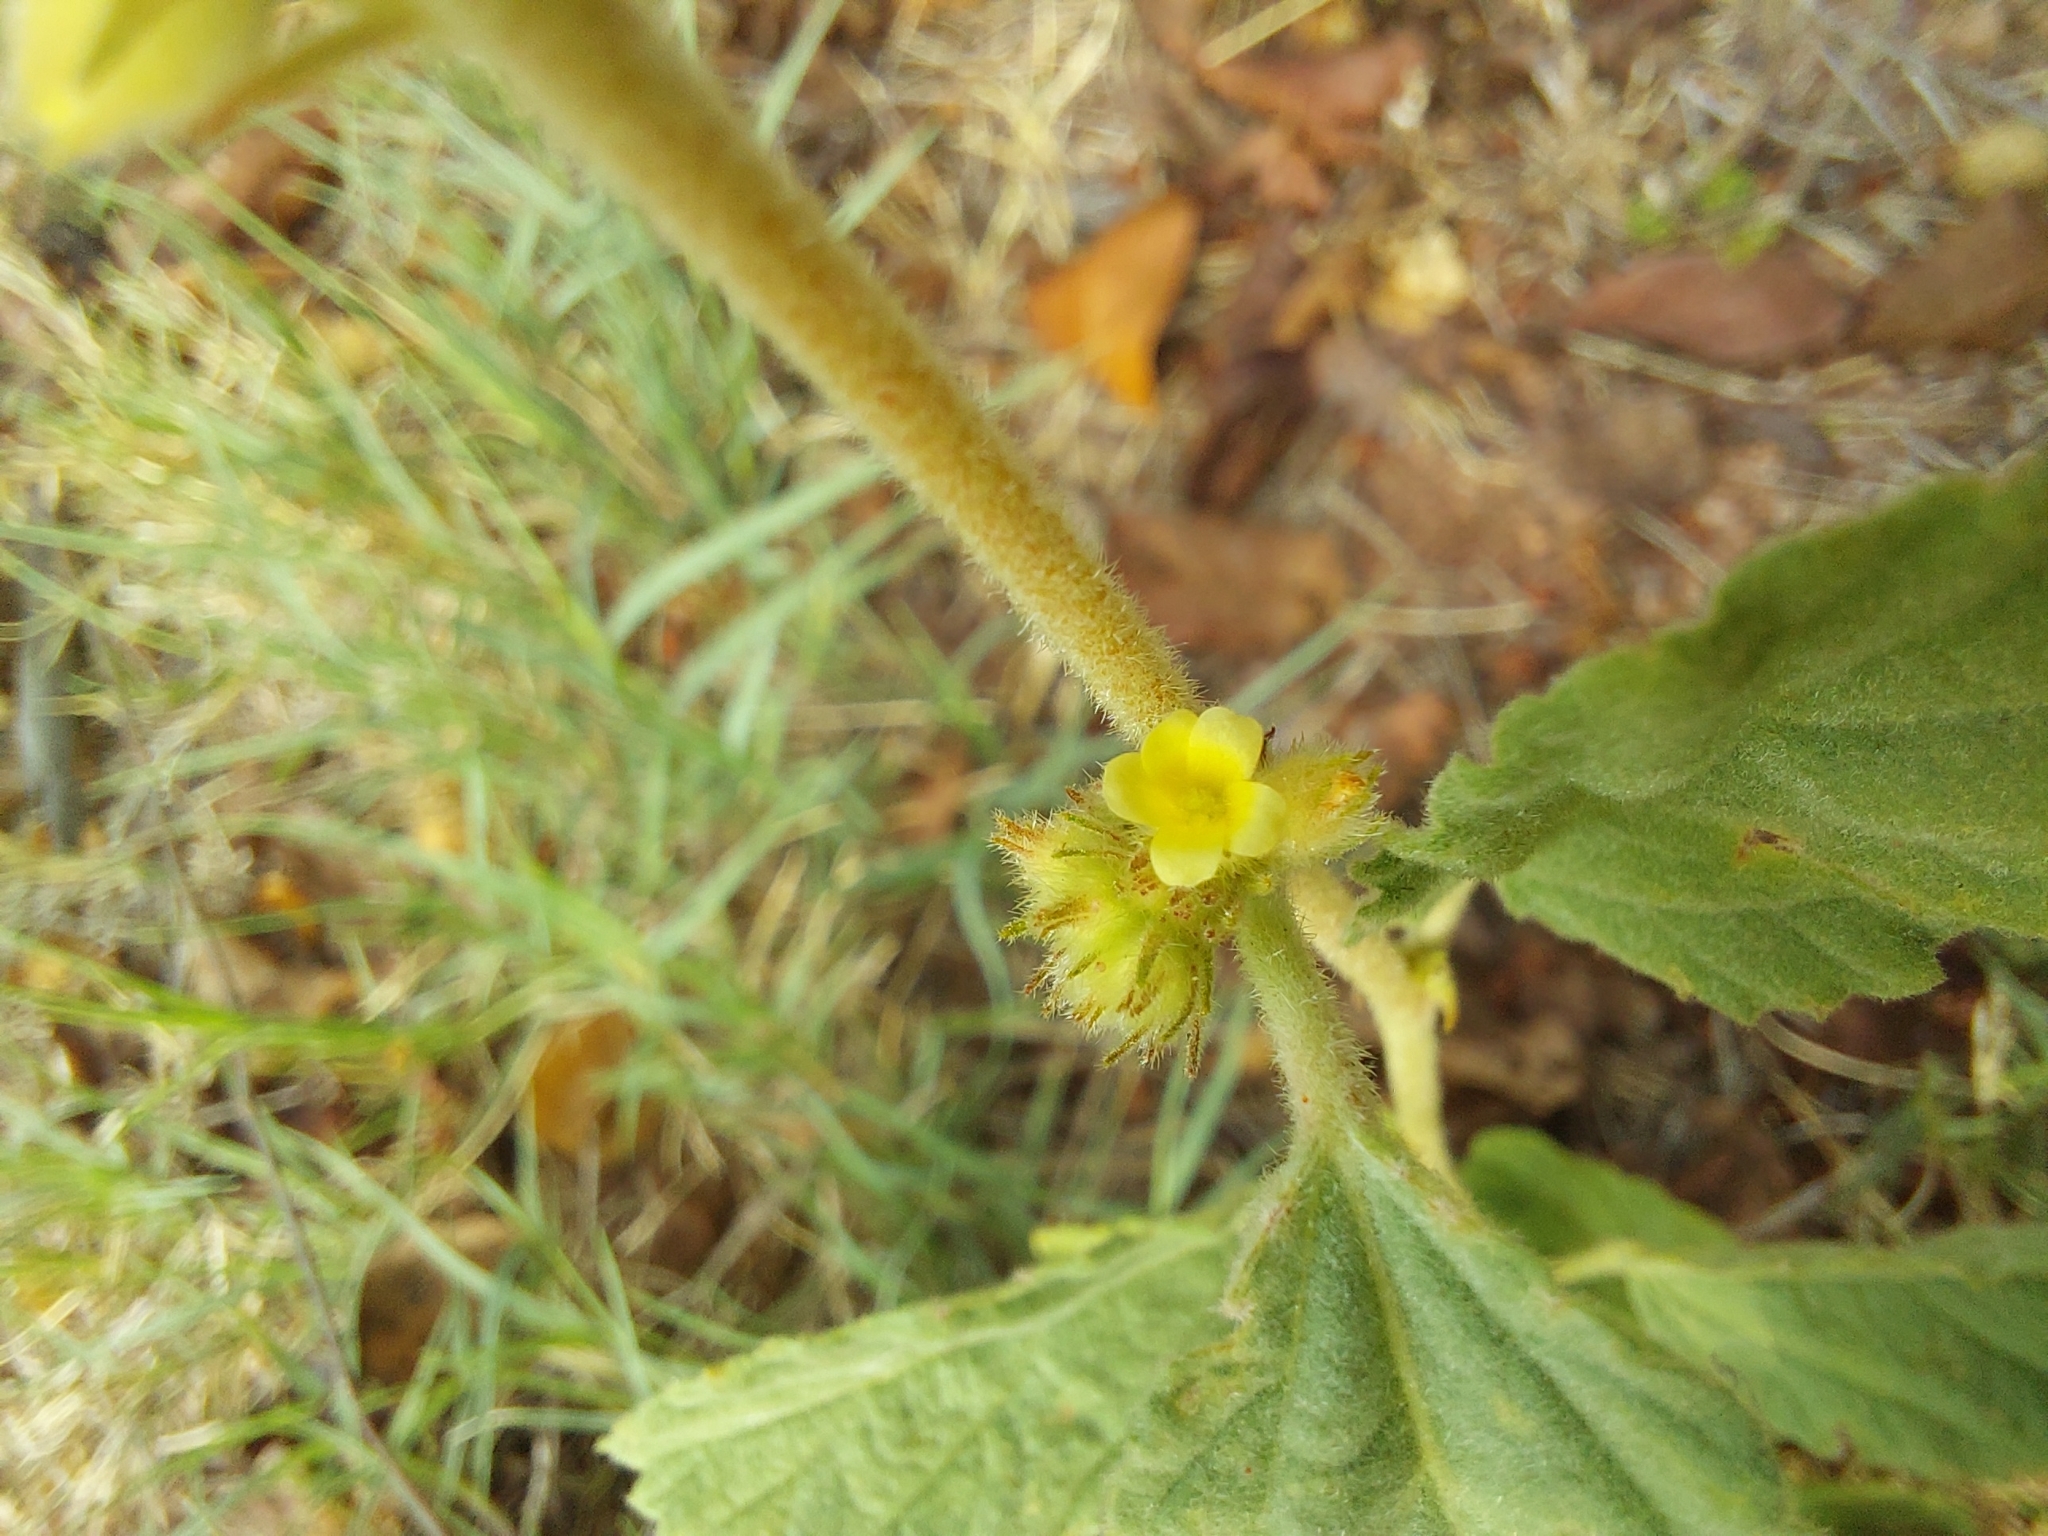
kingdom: Plantae
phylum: Tracheophyta
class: Magnoliopsida
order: Malvales
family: Malvaceae
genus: Waltheria
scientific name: Waltheria indica
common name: Leather-coat
